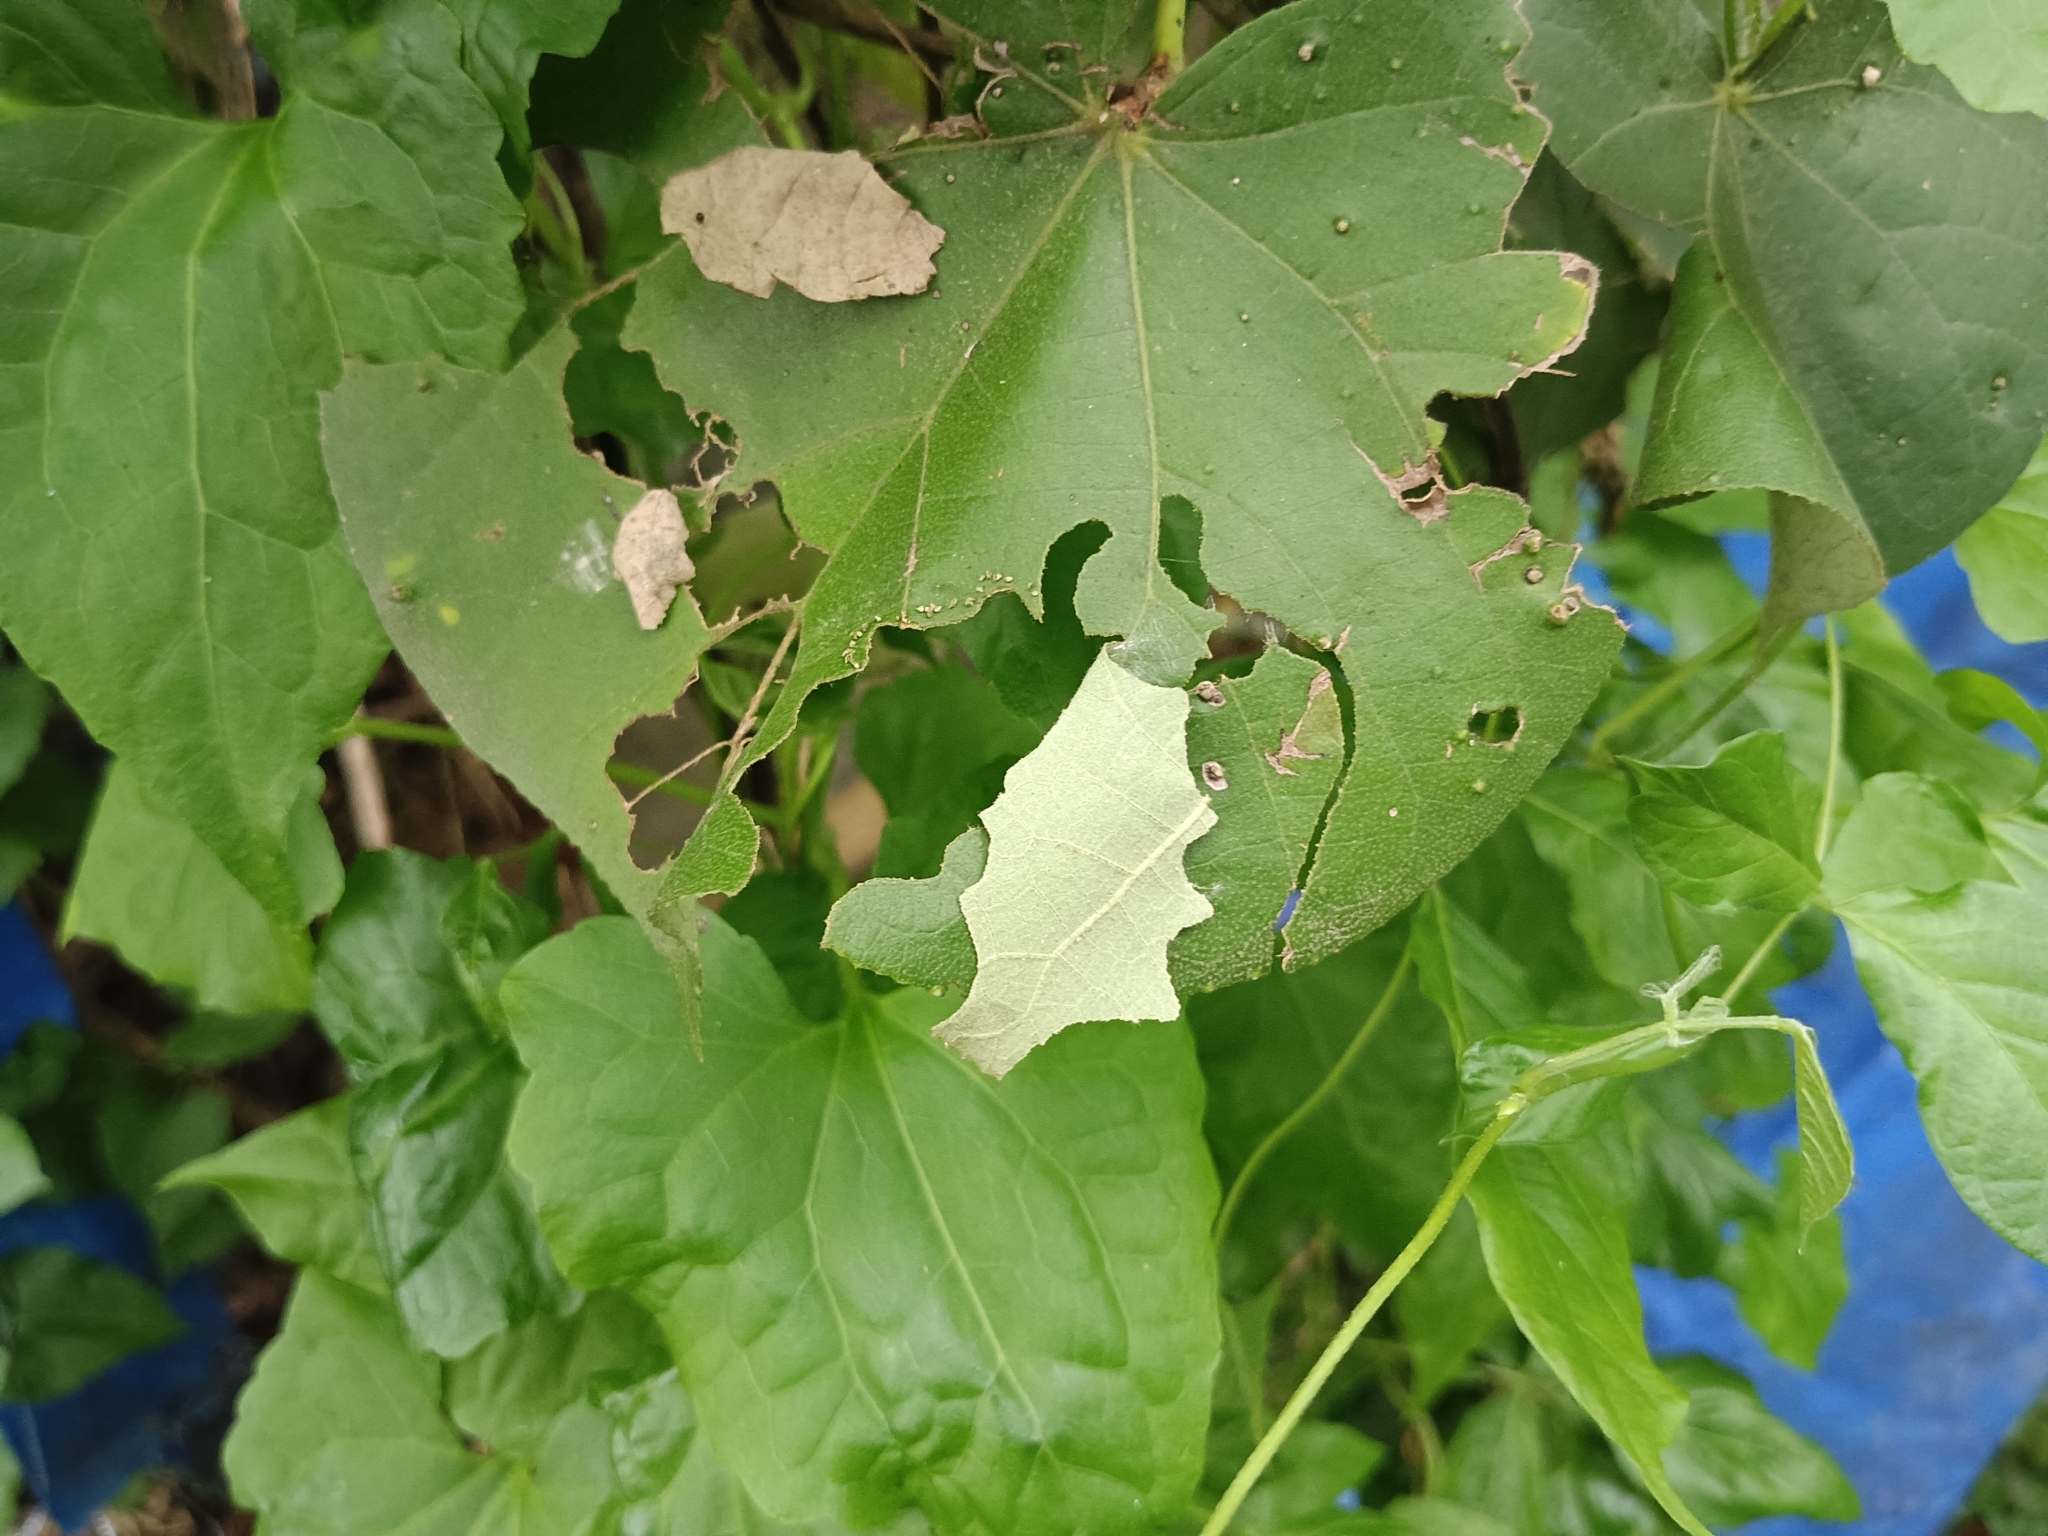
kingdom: Animalia
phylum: Arthropoda
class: Insecta
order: Lepidoptera
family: Hesperiidae
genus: Coladenia
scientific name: Coladenia
